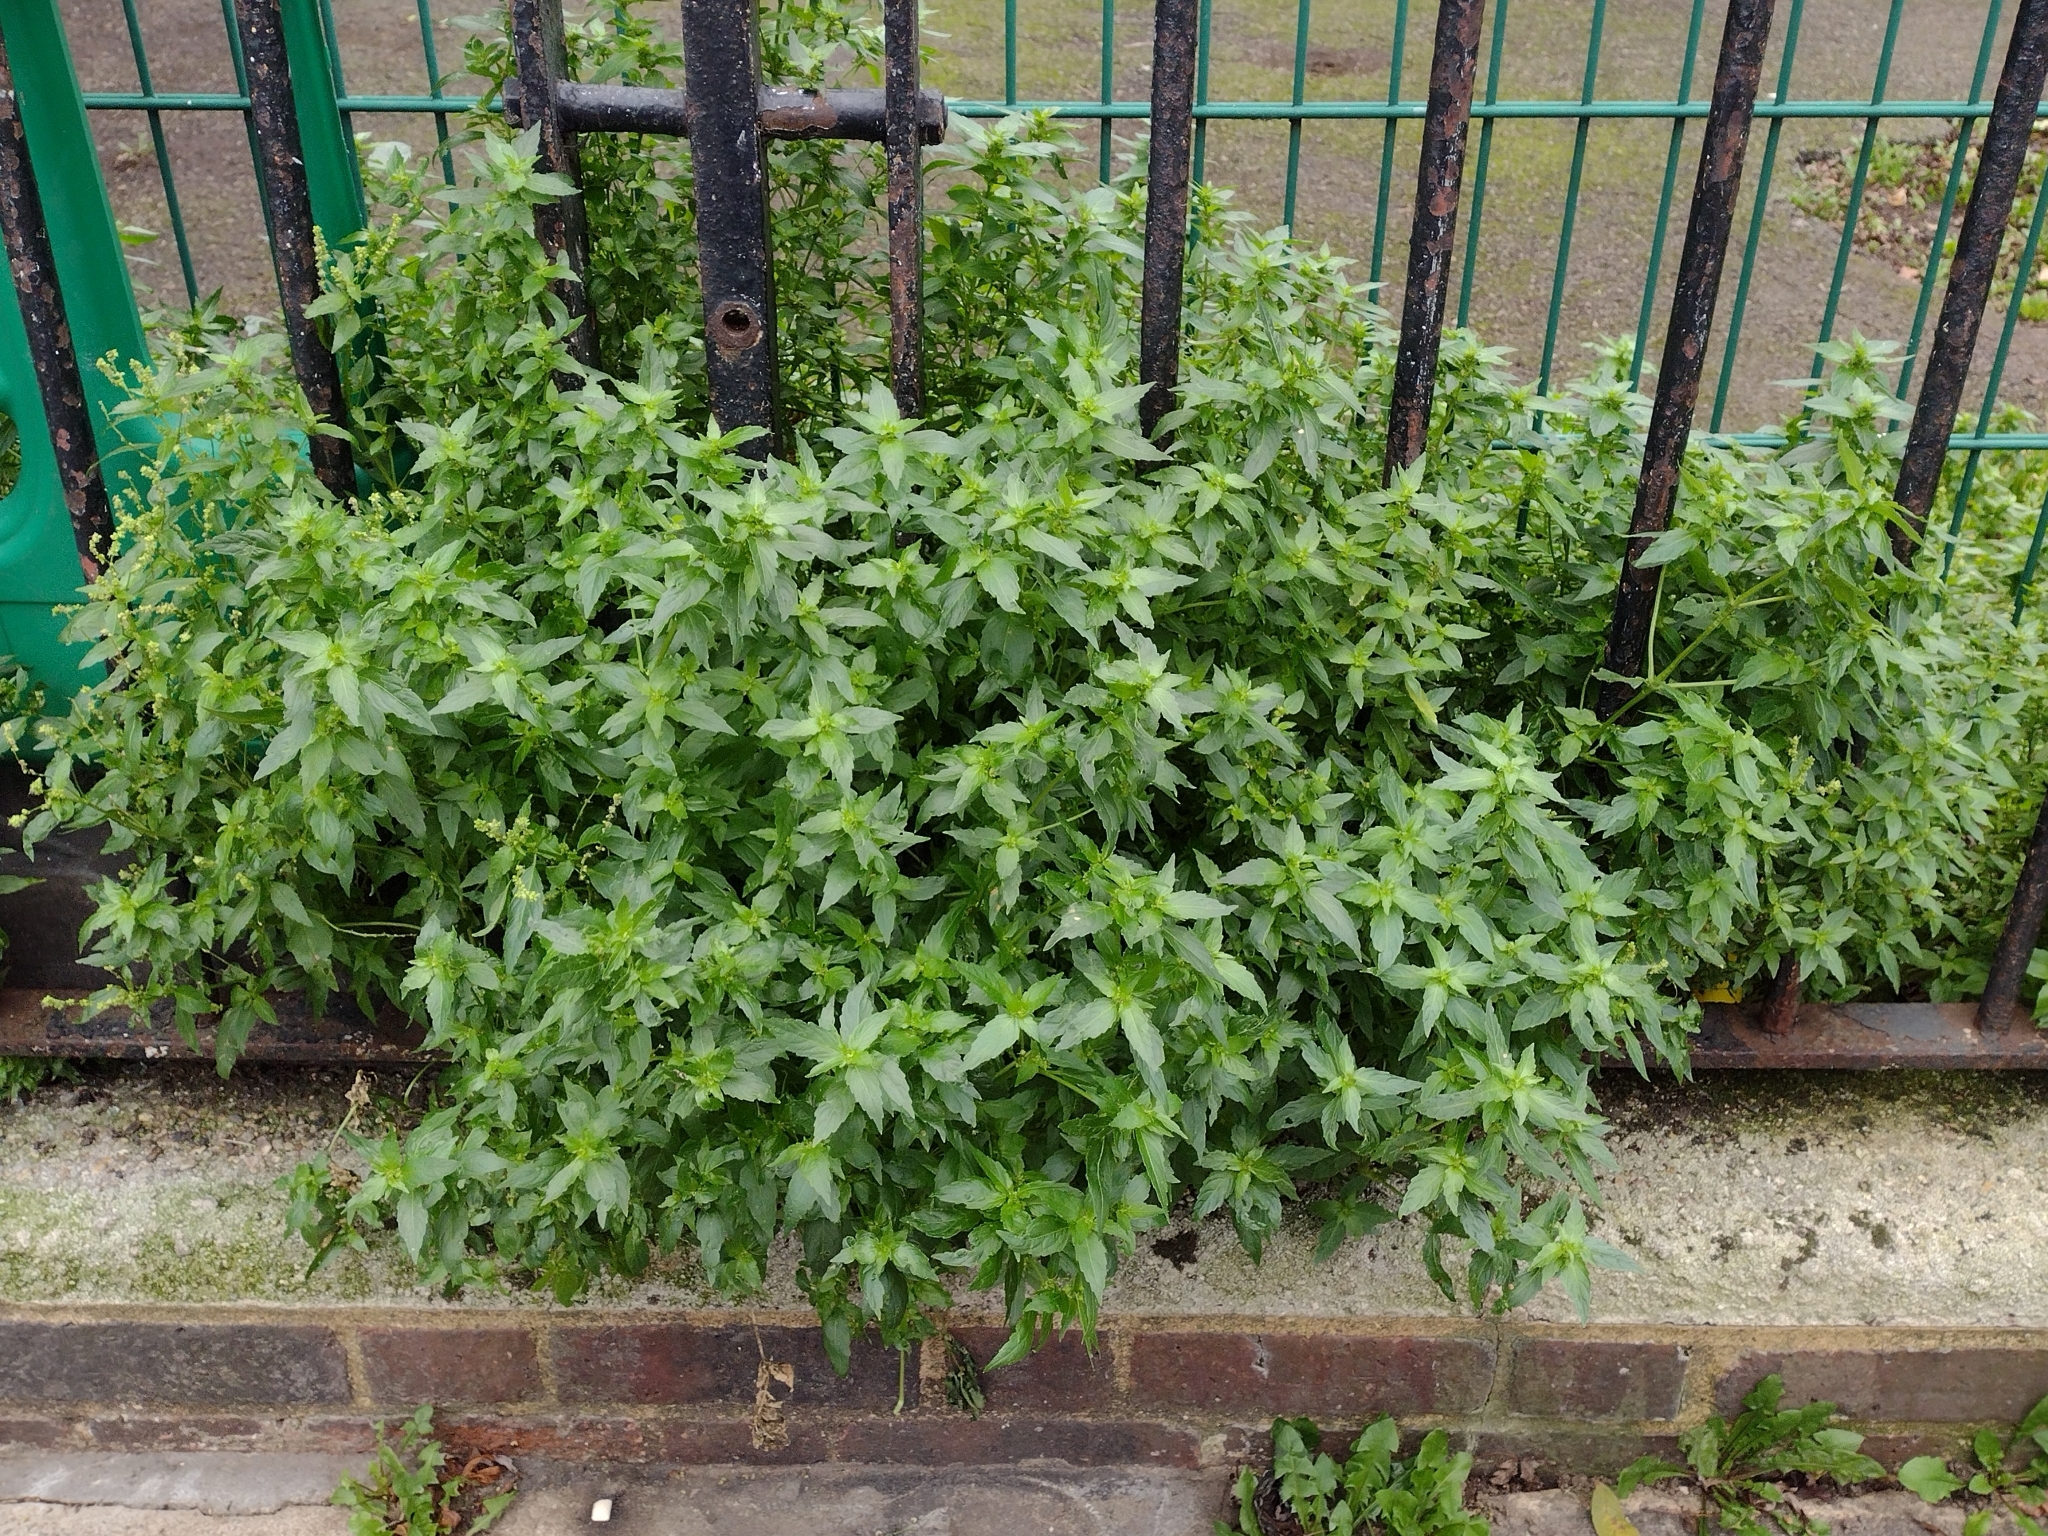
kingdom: Plantae
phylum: Tracheophyta
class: Magnoliopsida
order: Malpighiales
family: Euphorbiaceae
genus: Mercurialis
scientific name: Mercurialis annua
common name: Annual mercury
